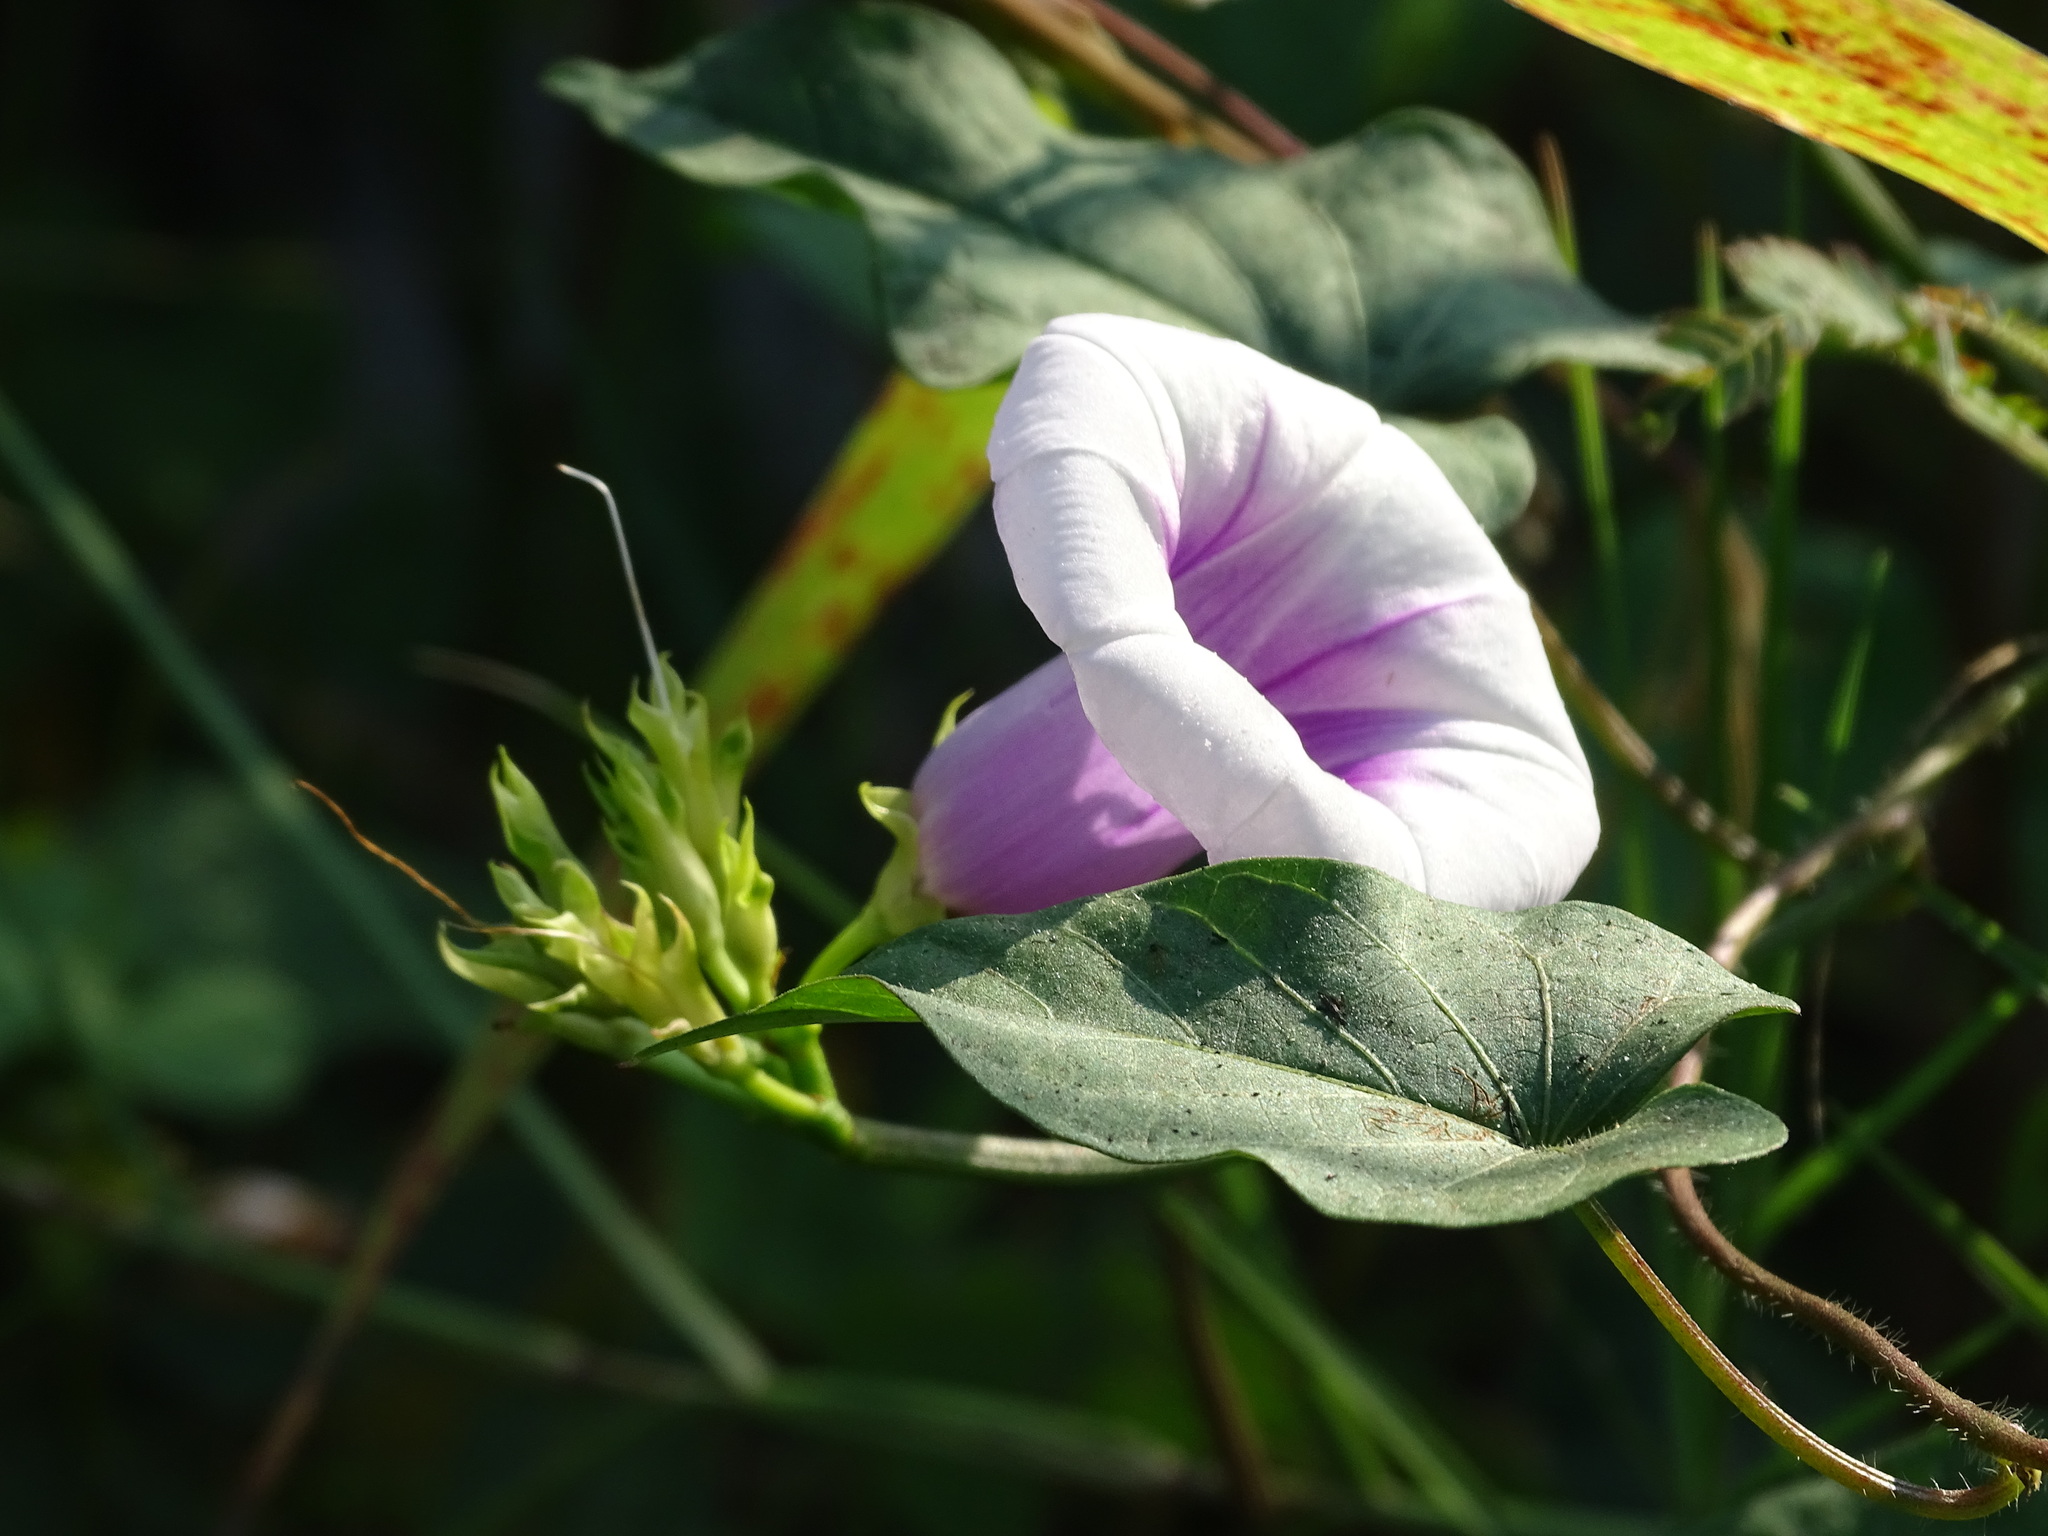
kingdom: Plantae
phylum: Tracheophyta
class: Magnoliopsida
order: Solanales
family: Convolvulaceae
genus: Ipomoea
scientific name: Ipomoea batatas
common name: Sweet-potato
